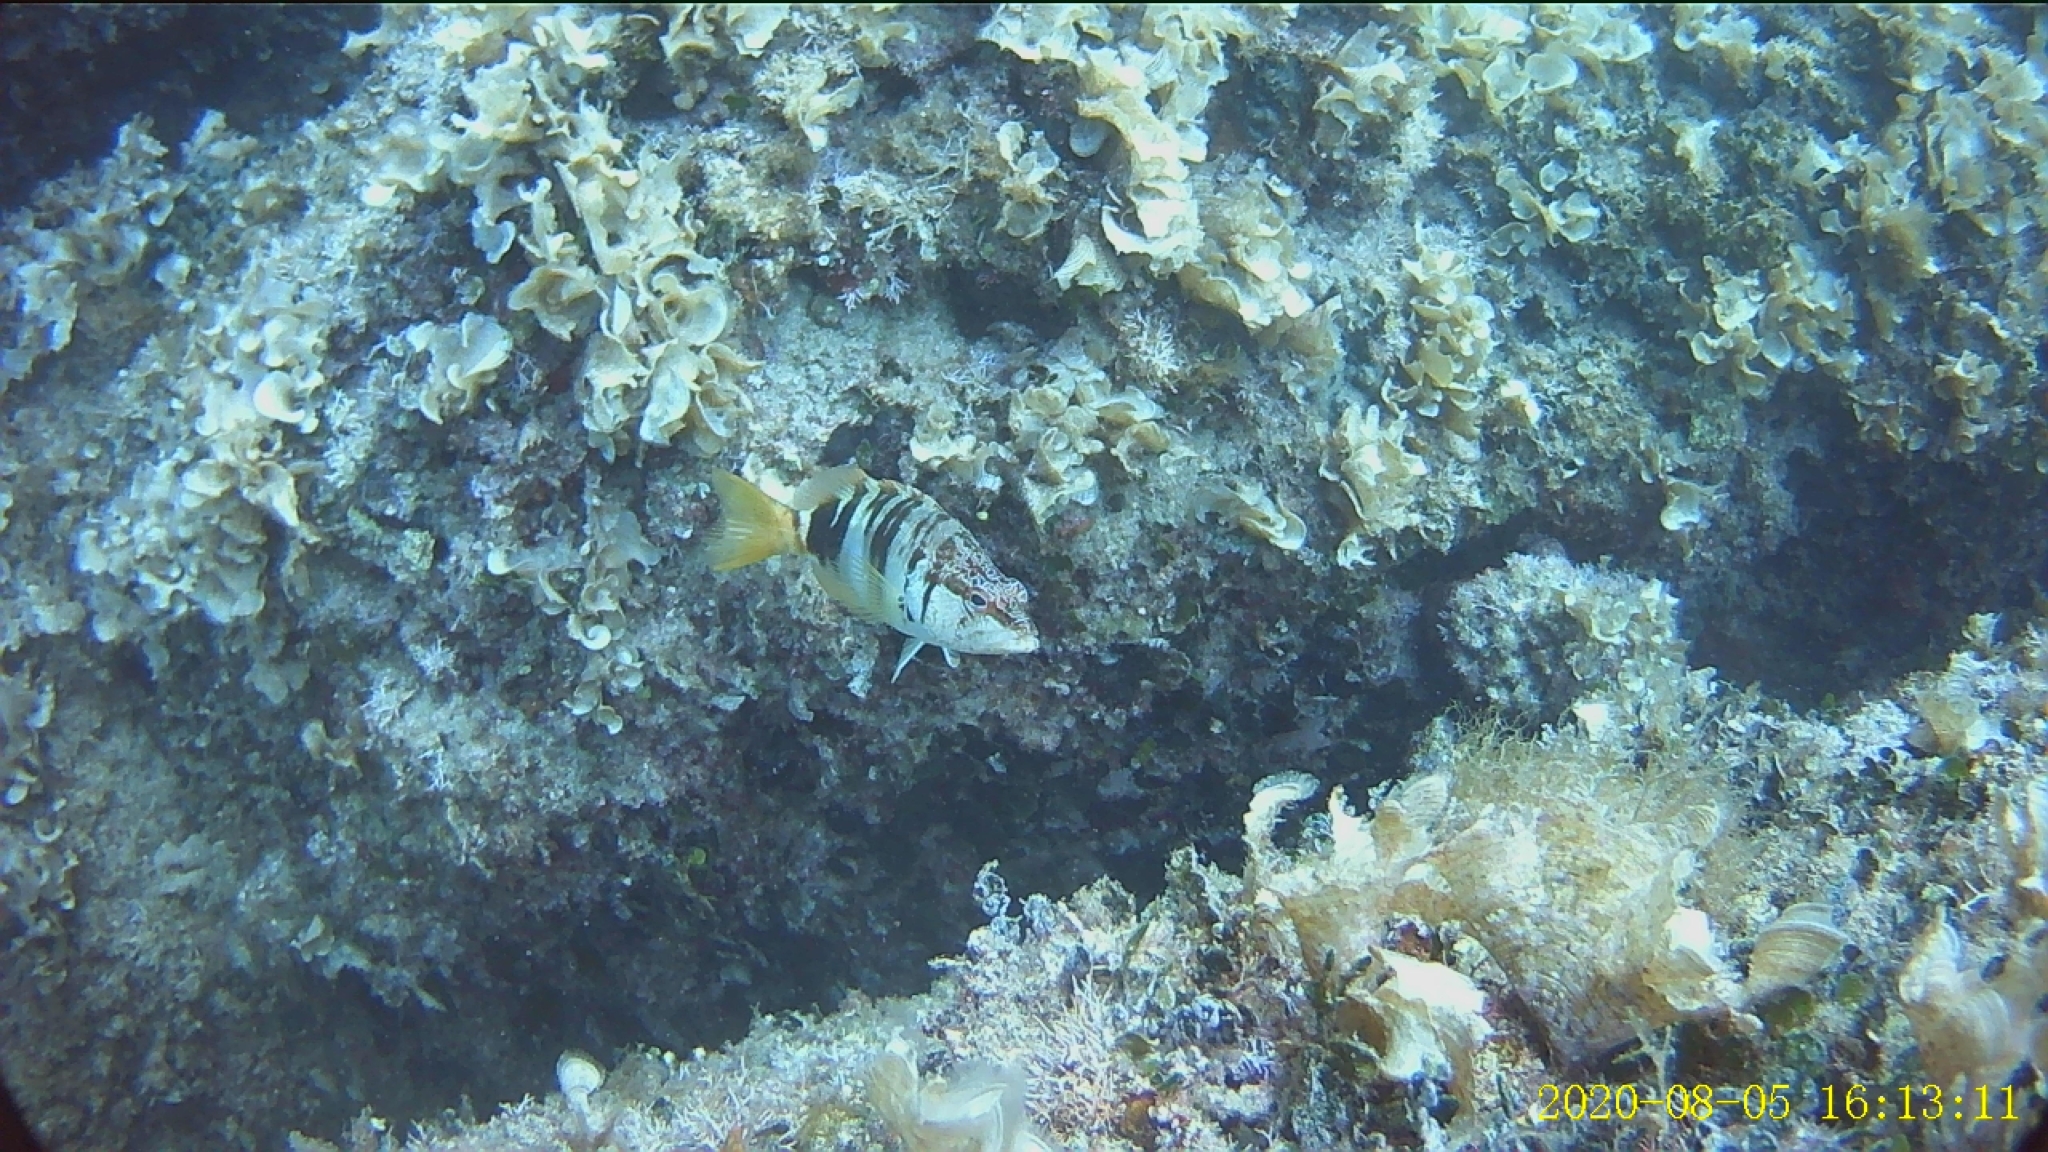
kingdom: Animalia
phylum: Chordata
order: Perciformes
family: Serranidae
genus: Serranus
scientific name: Serranus scriba
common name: Painted comber
